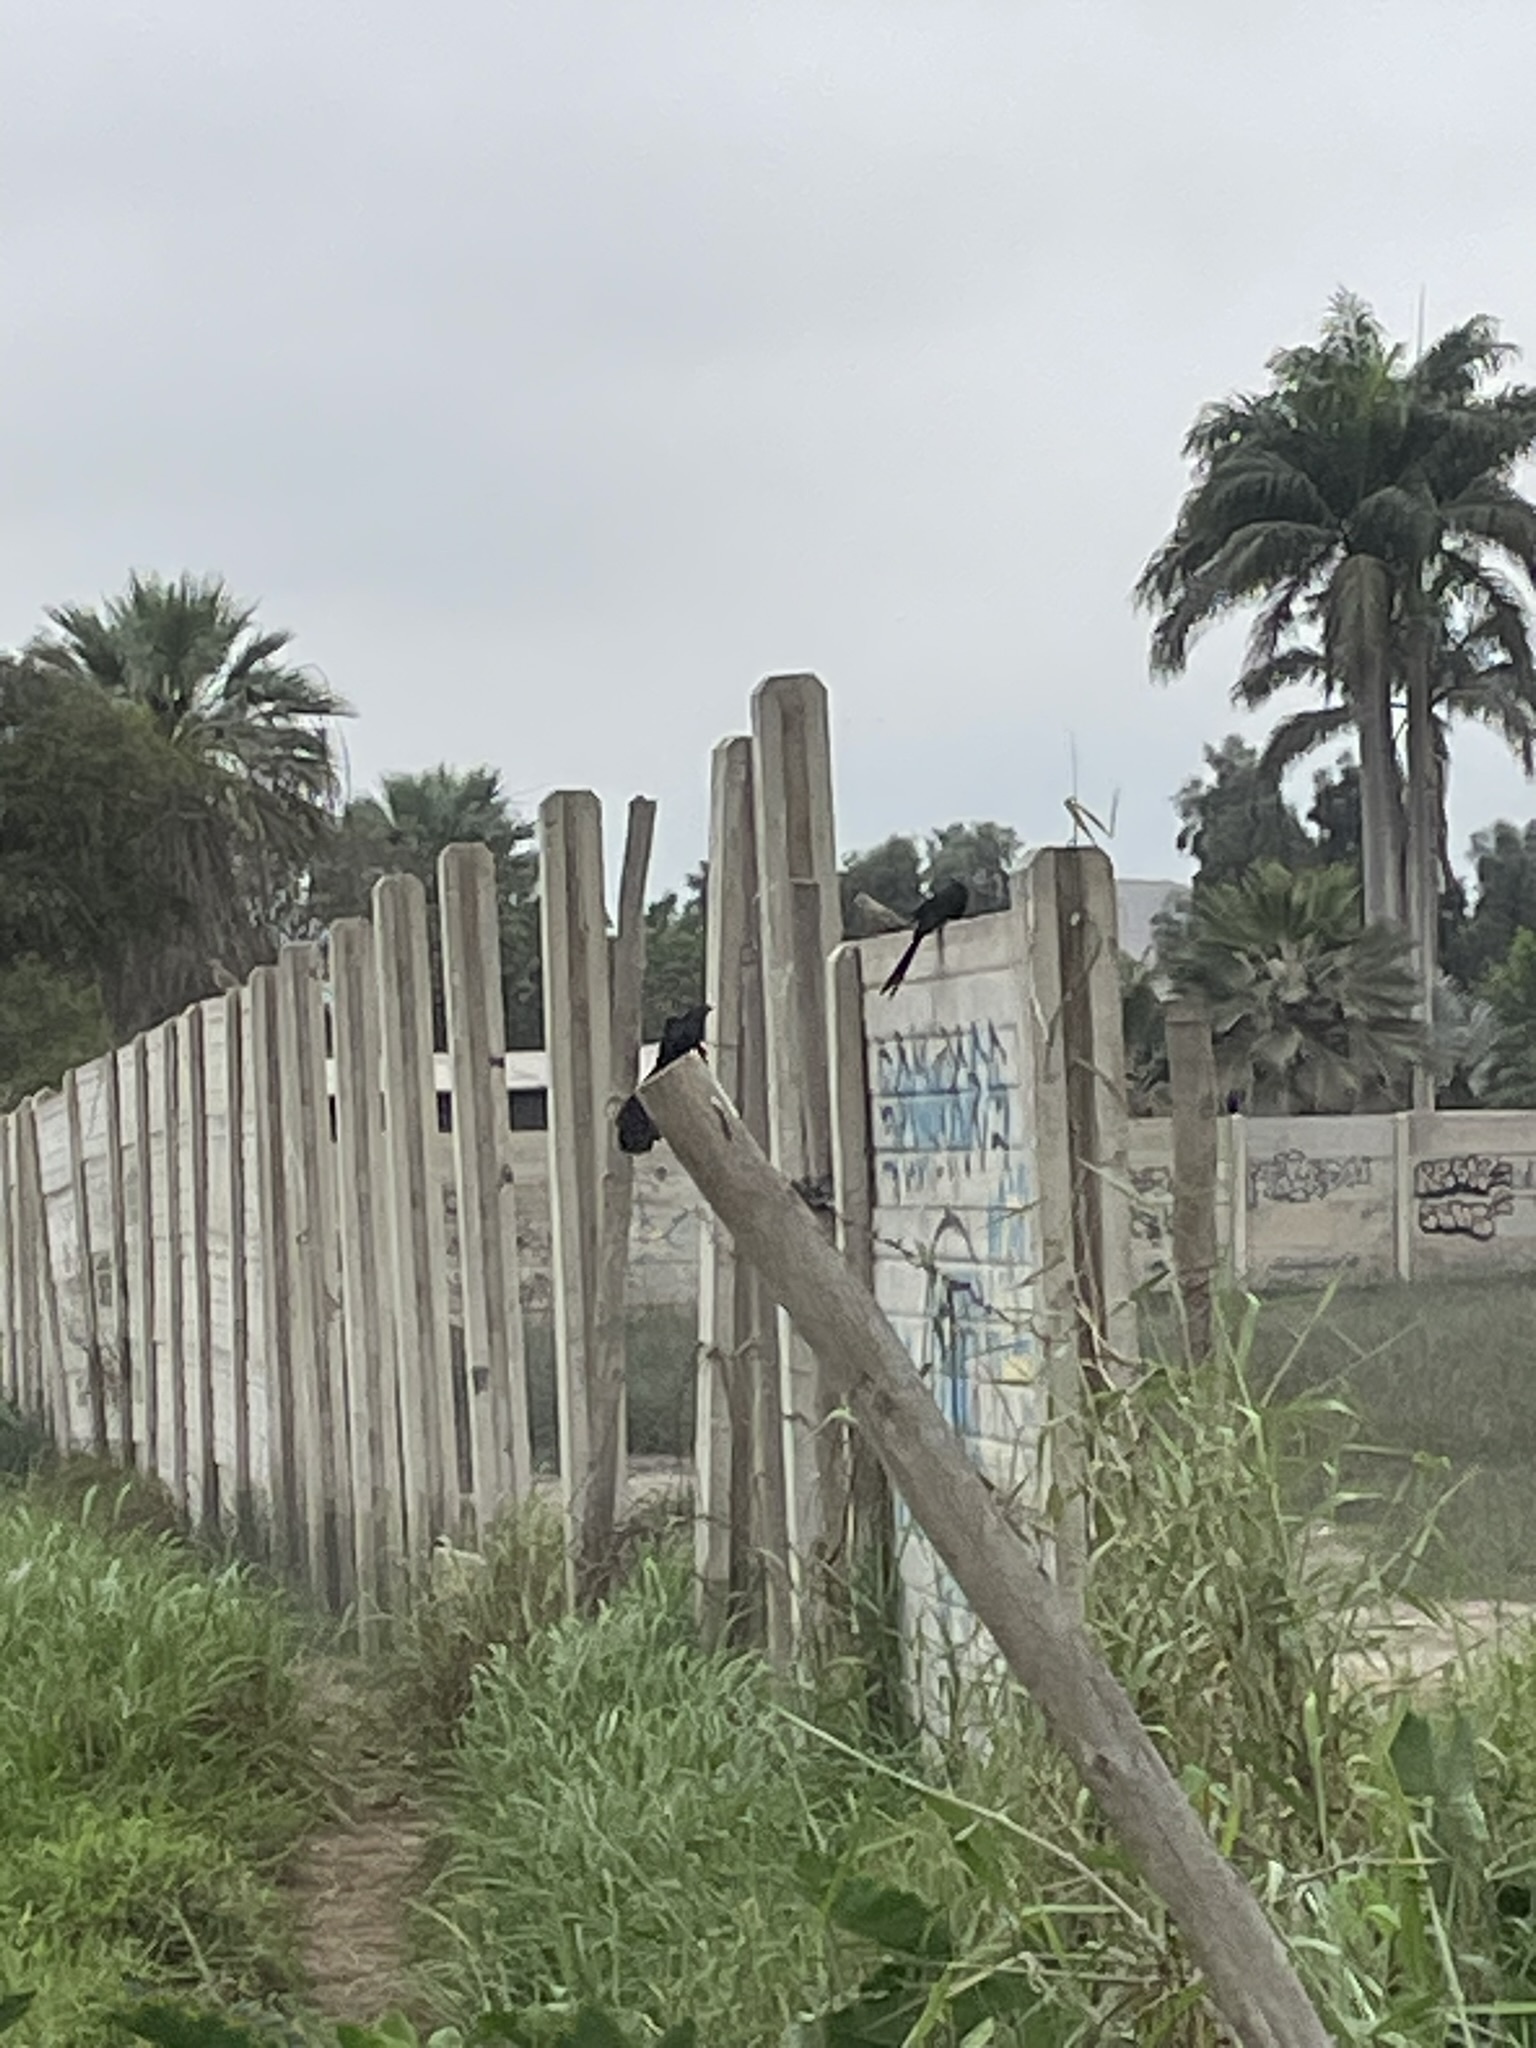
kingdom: Animalia
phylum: Chordata
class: Aves
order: Cuculiformes
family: Cuculidae
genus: Crotophaga
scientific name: Crotophaga sulcirostris
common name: Groove-billed ani
